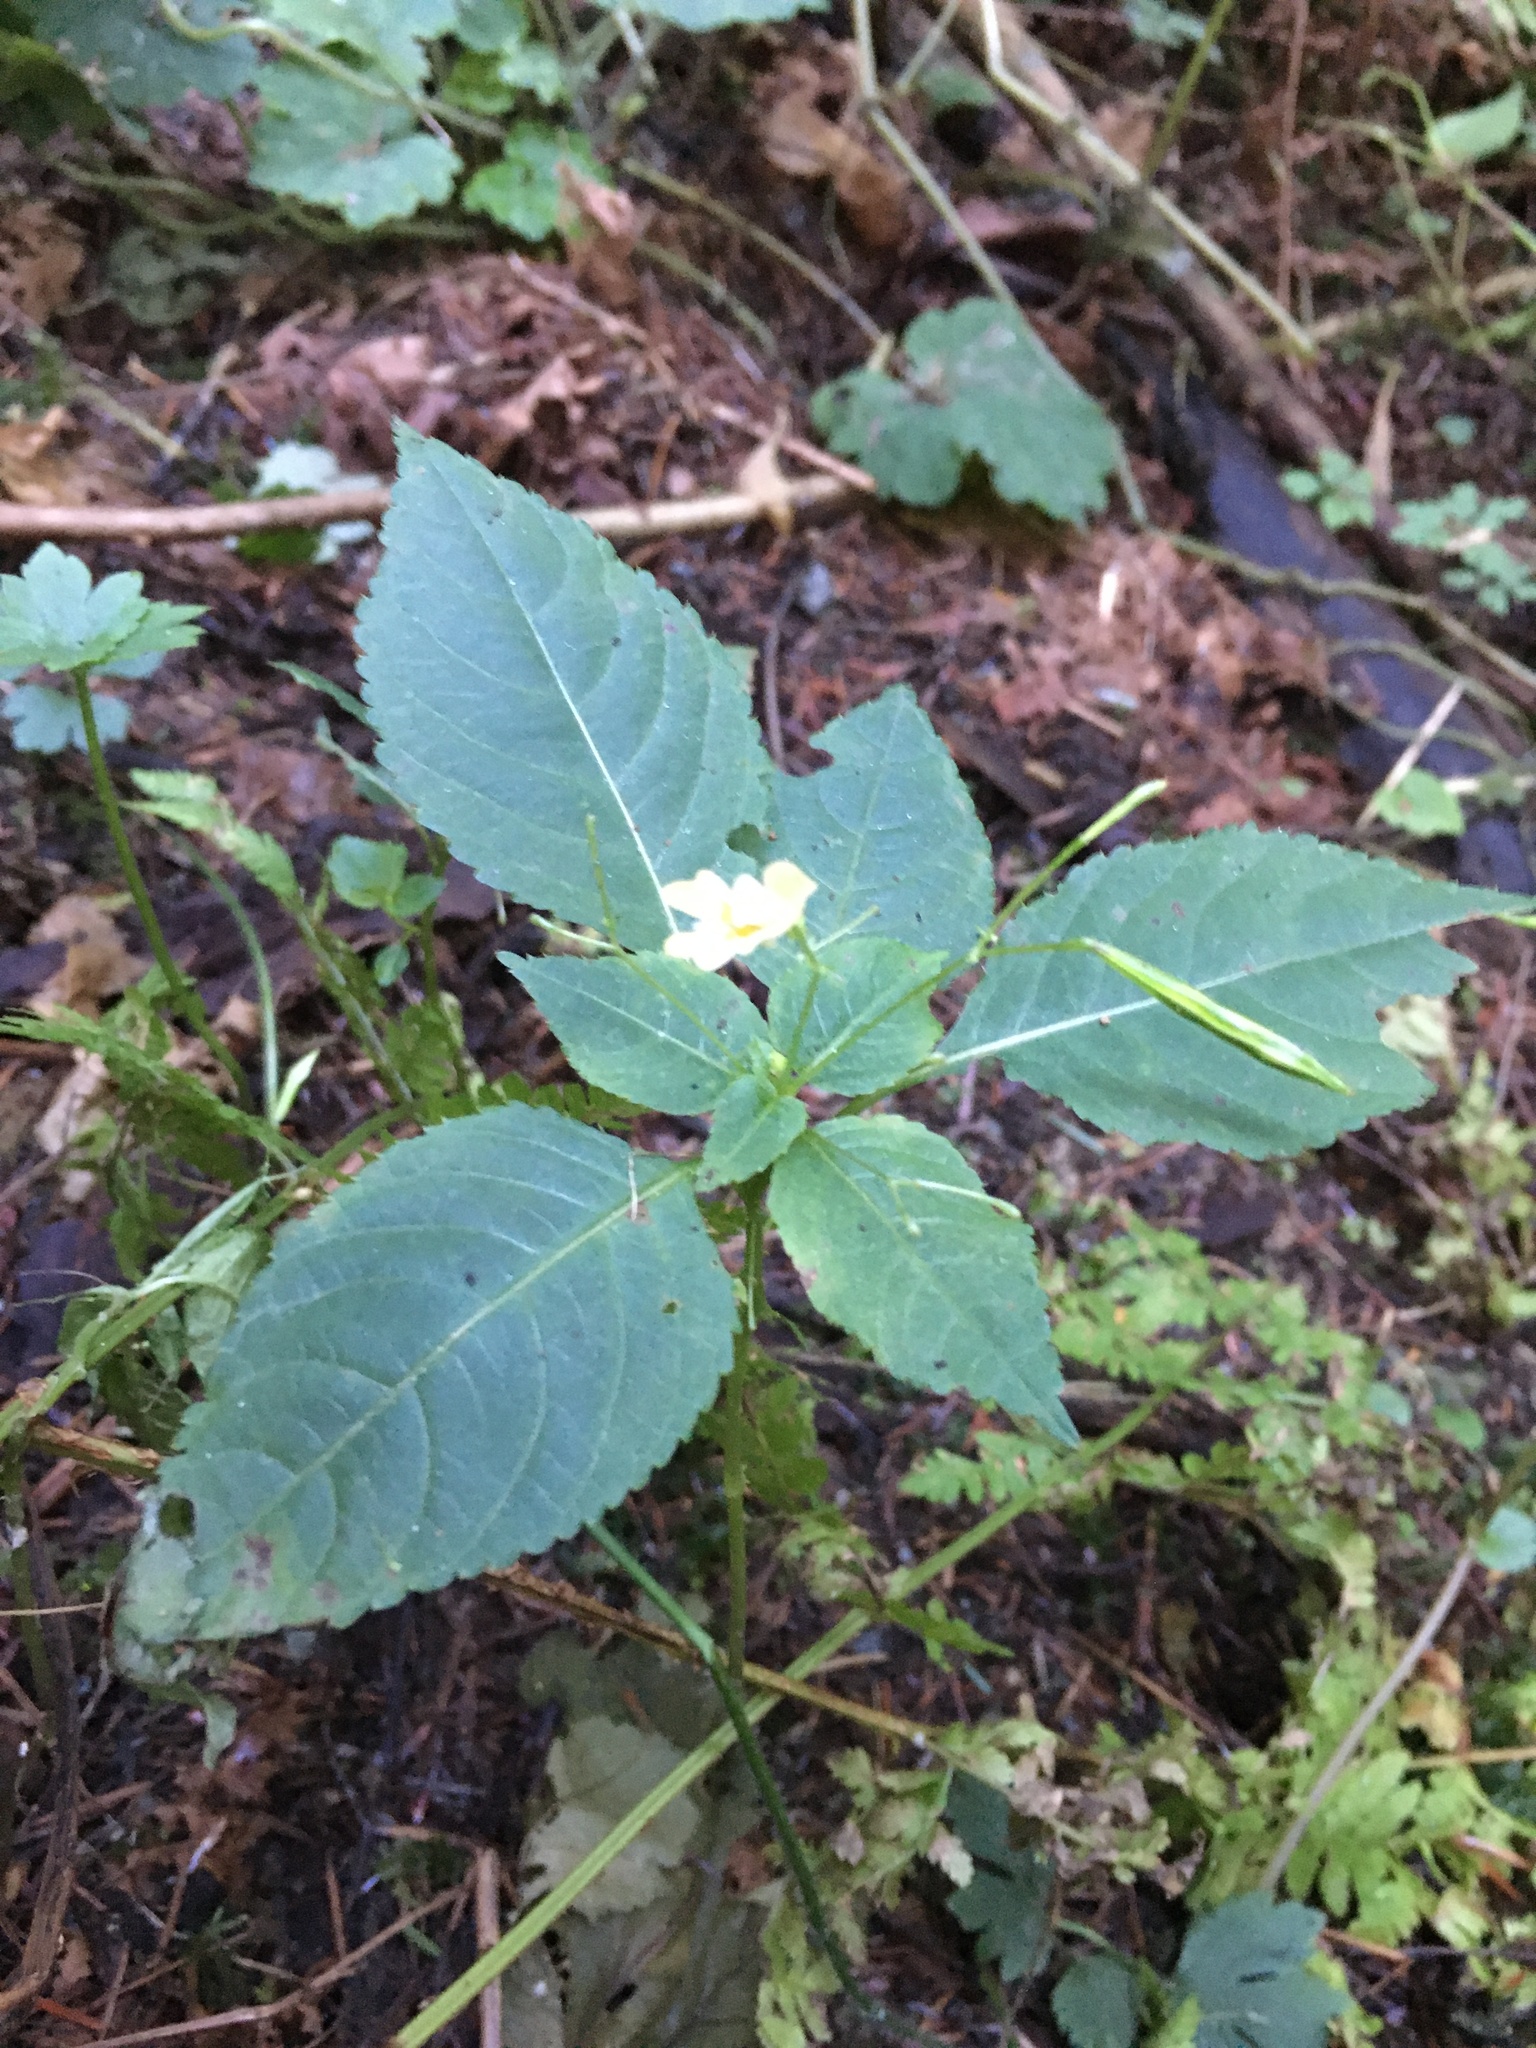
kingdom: Plantae
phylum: Tracheophyta
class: Magnoliopsida
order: Ericales
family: Balsaminaceae
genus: Impatiens
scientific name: Impatiens parviflora
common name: Small balsam
